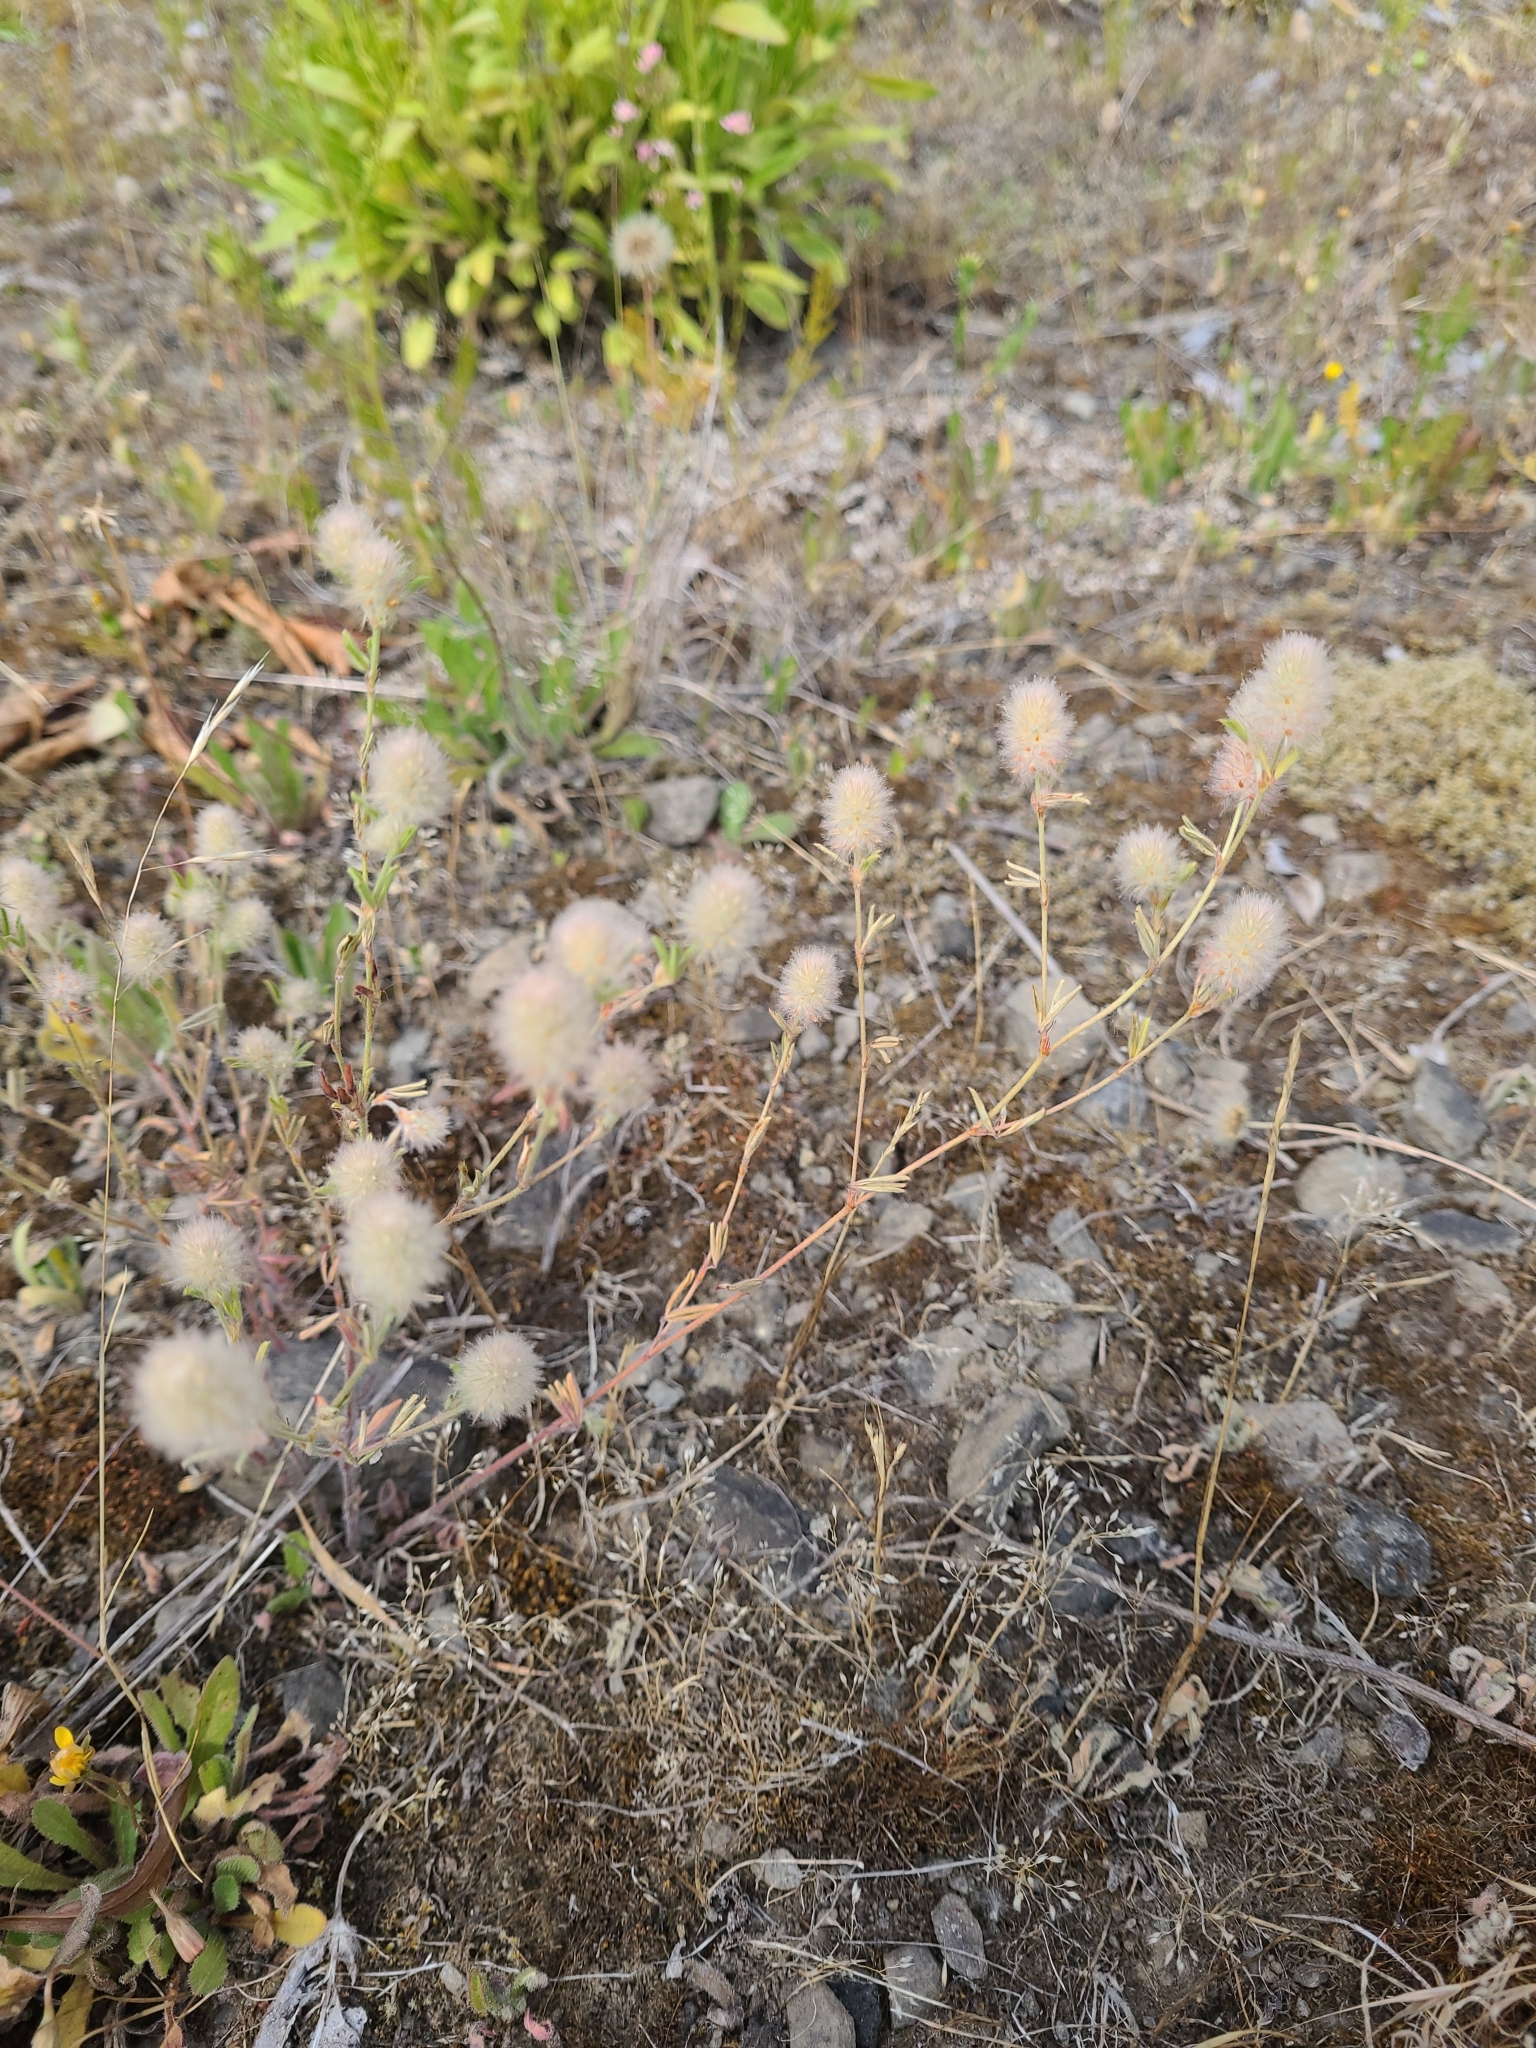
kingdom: Plantae
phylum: Tracheophyta
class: Magnoliopsida
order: Fabales
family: Fabaceae
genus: Trifolium
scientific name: Trifolium arvense
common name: Hare's-foot clover
